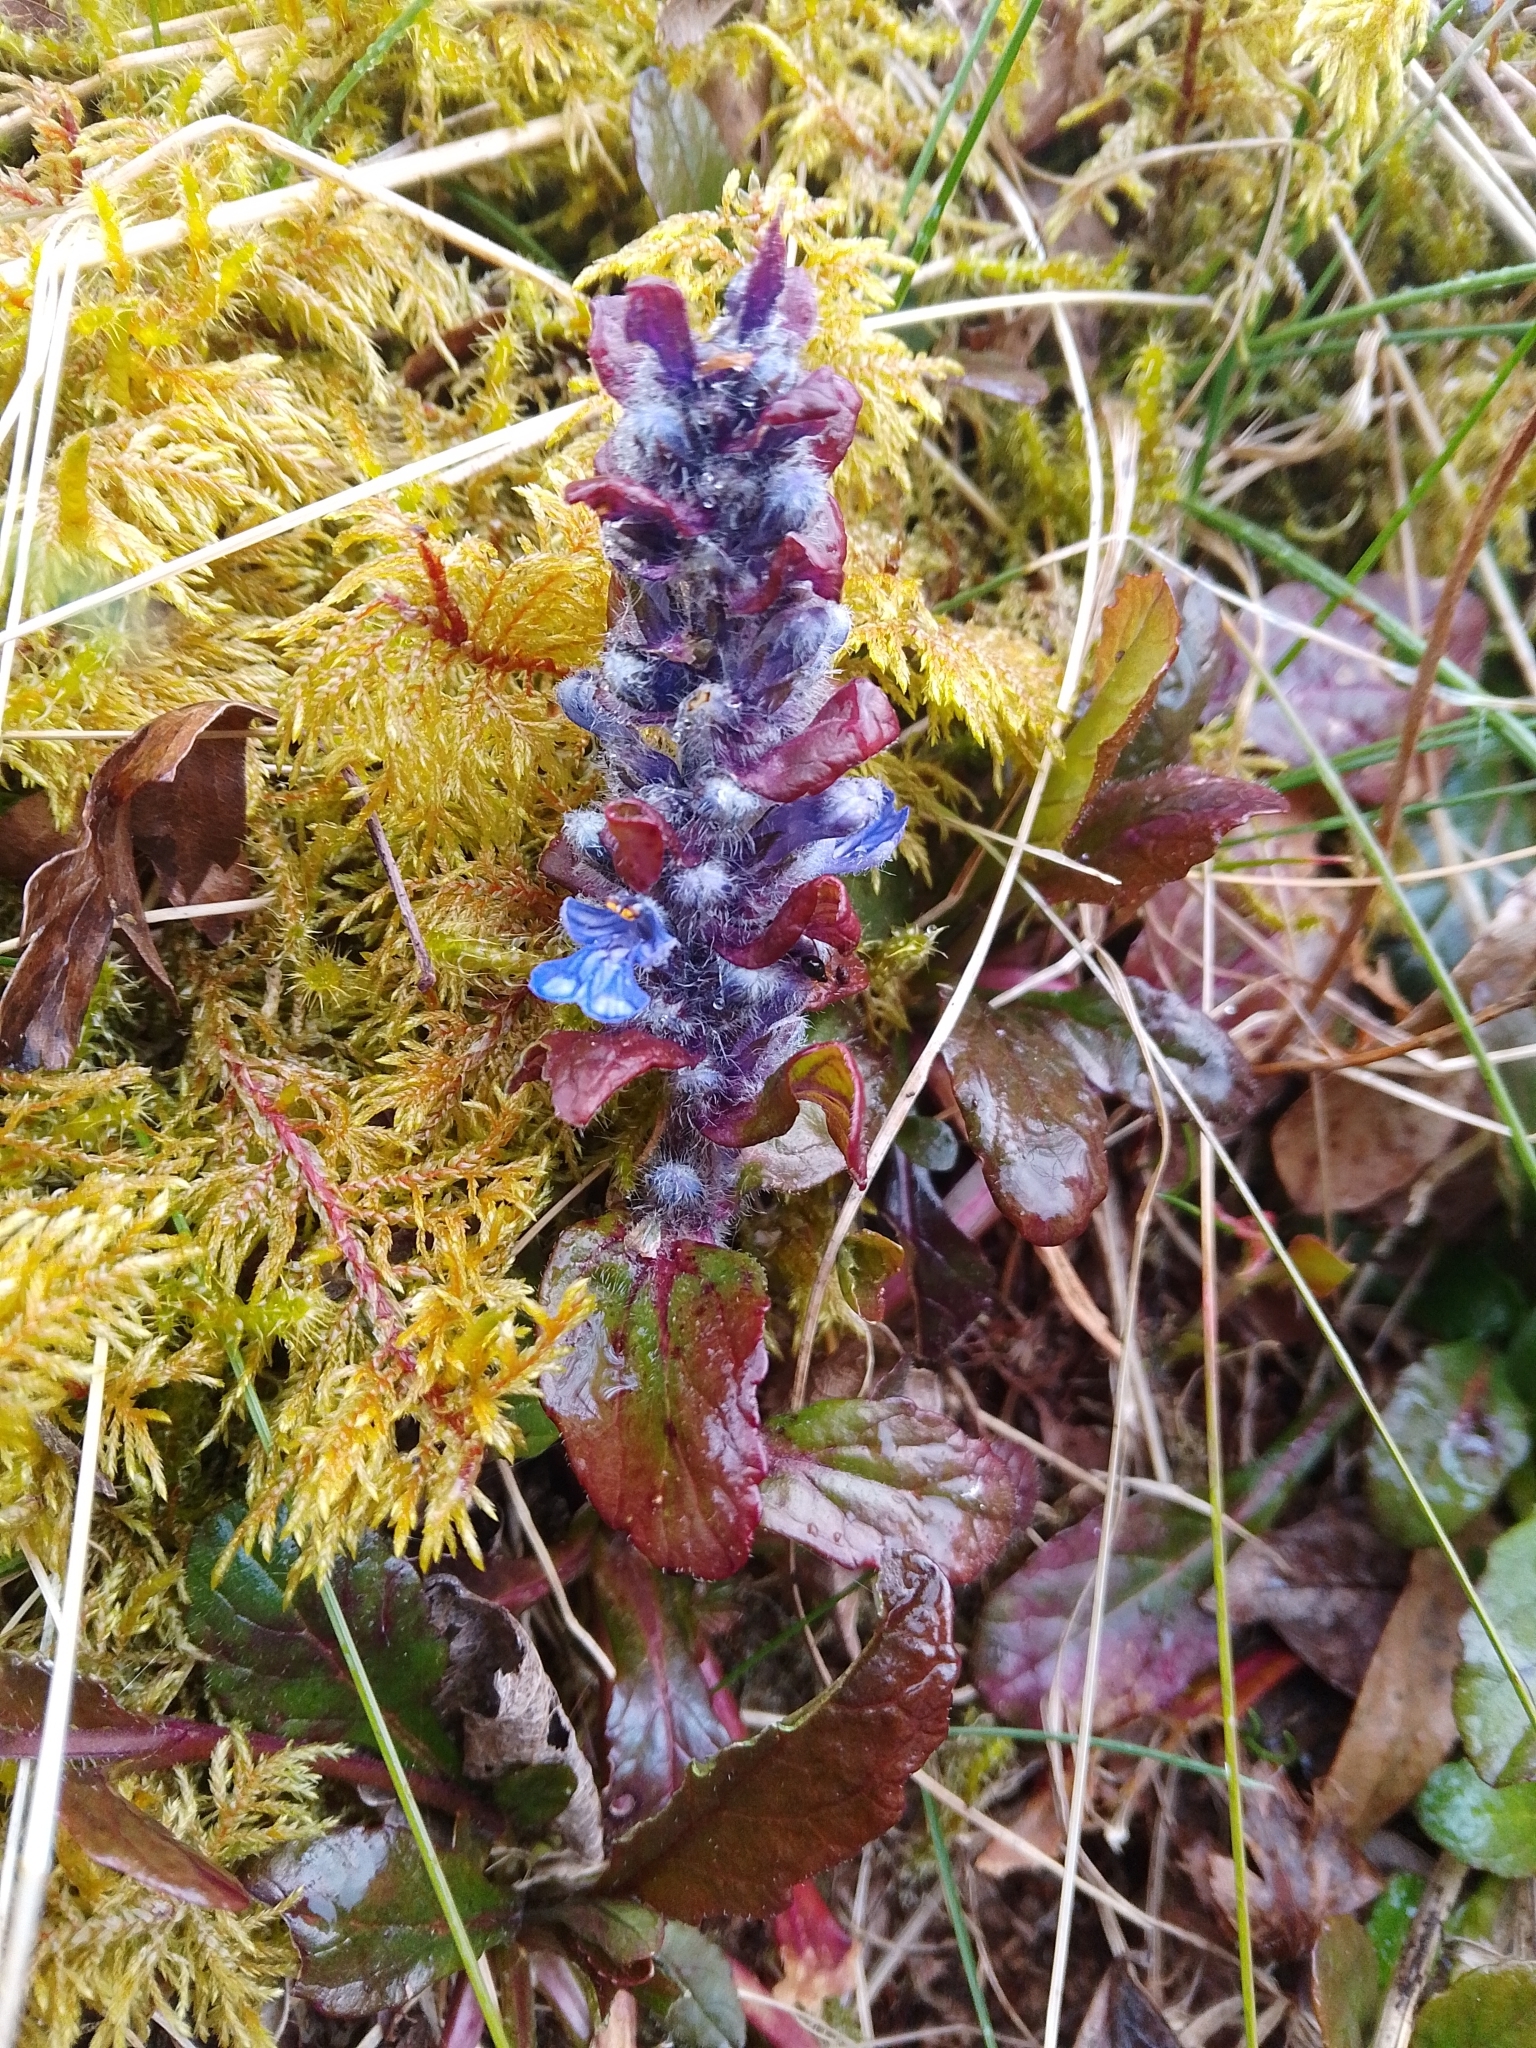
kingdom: Plantae
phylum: Tracheophyta
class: Magnoliopsida
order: Lamiales
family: Lamiaceae
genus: Ajuga
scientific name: Ajuga reptans
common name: Bugle
